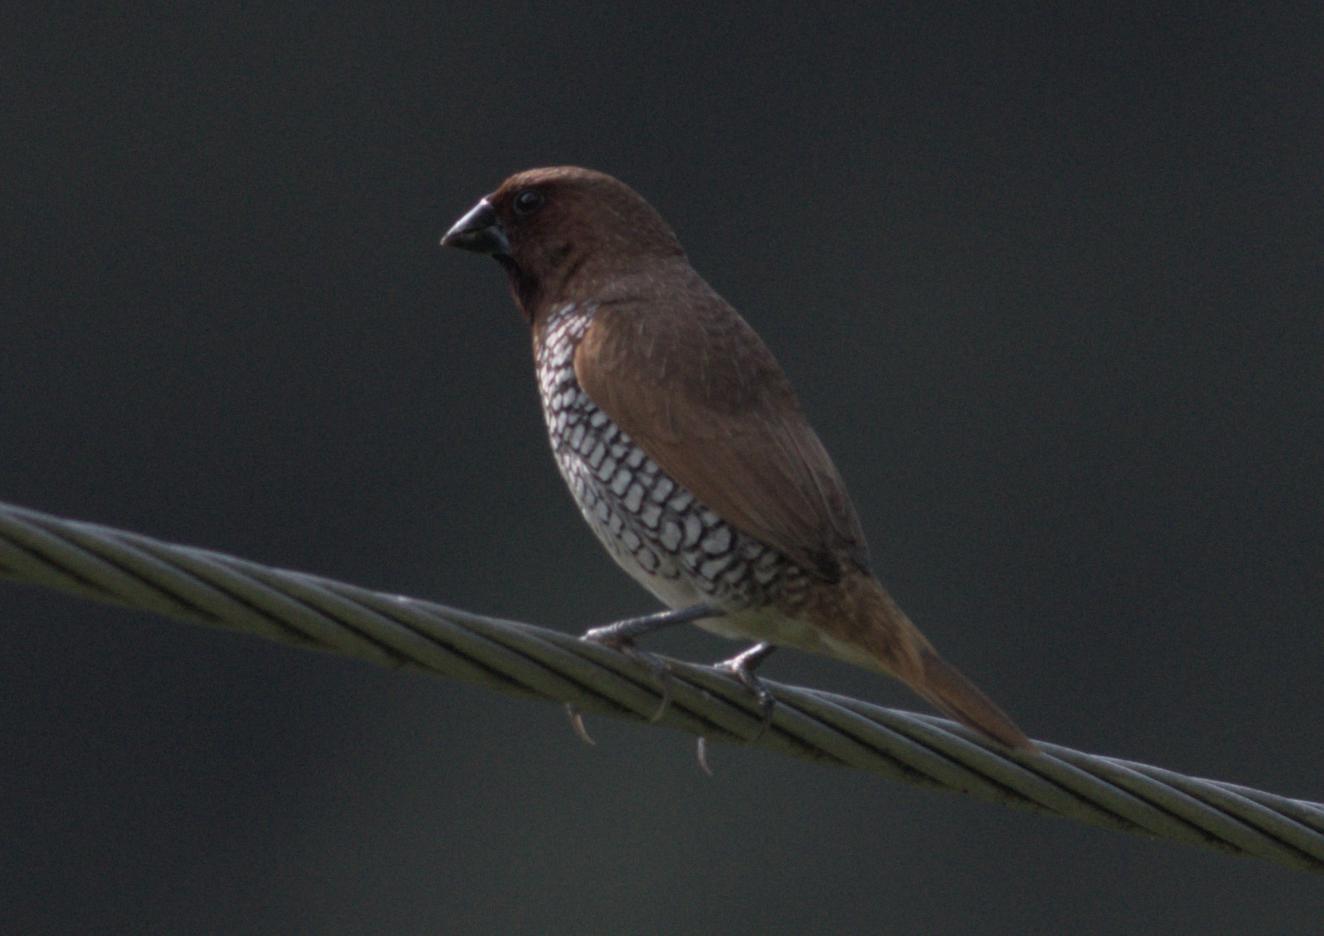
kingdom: Animalia
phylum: Chordata
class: Aves
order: Passeriformes
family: Estrildidae
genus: Lonchura
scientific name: Lonchura punctulata
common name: Scaly-breasted munia
